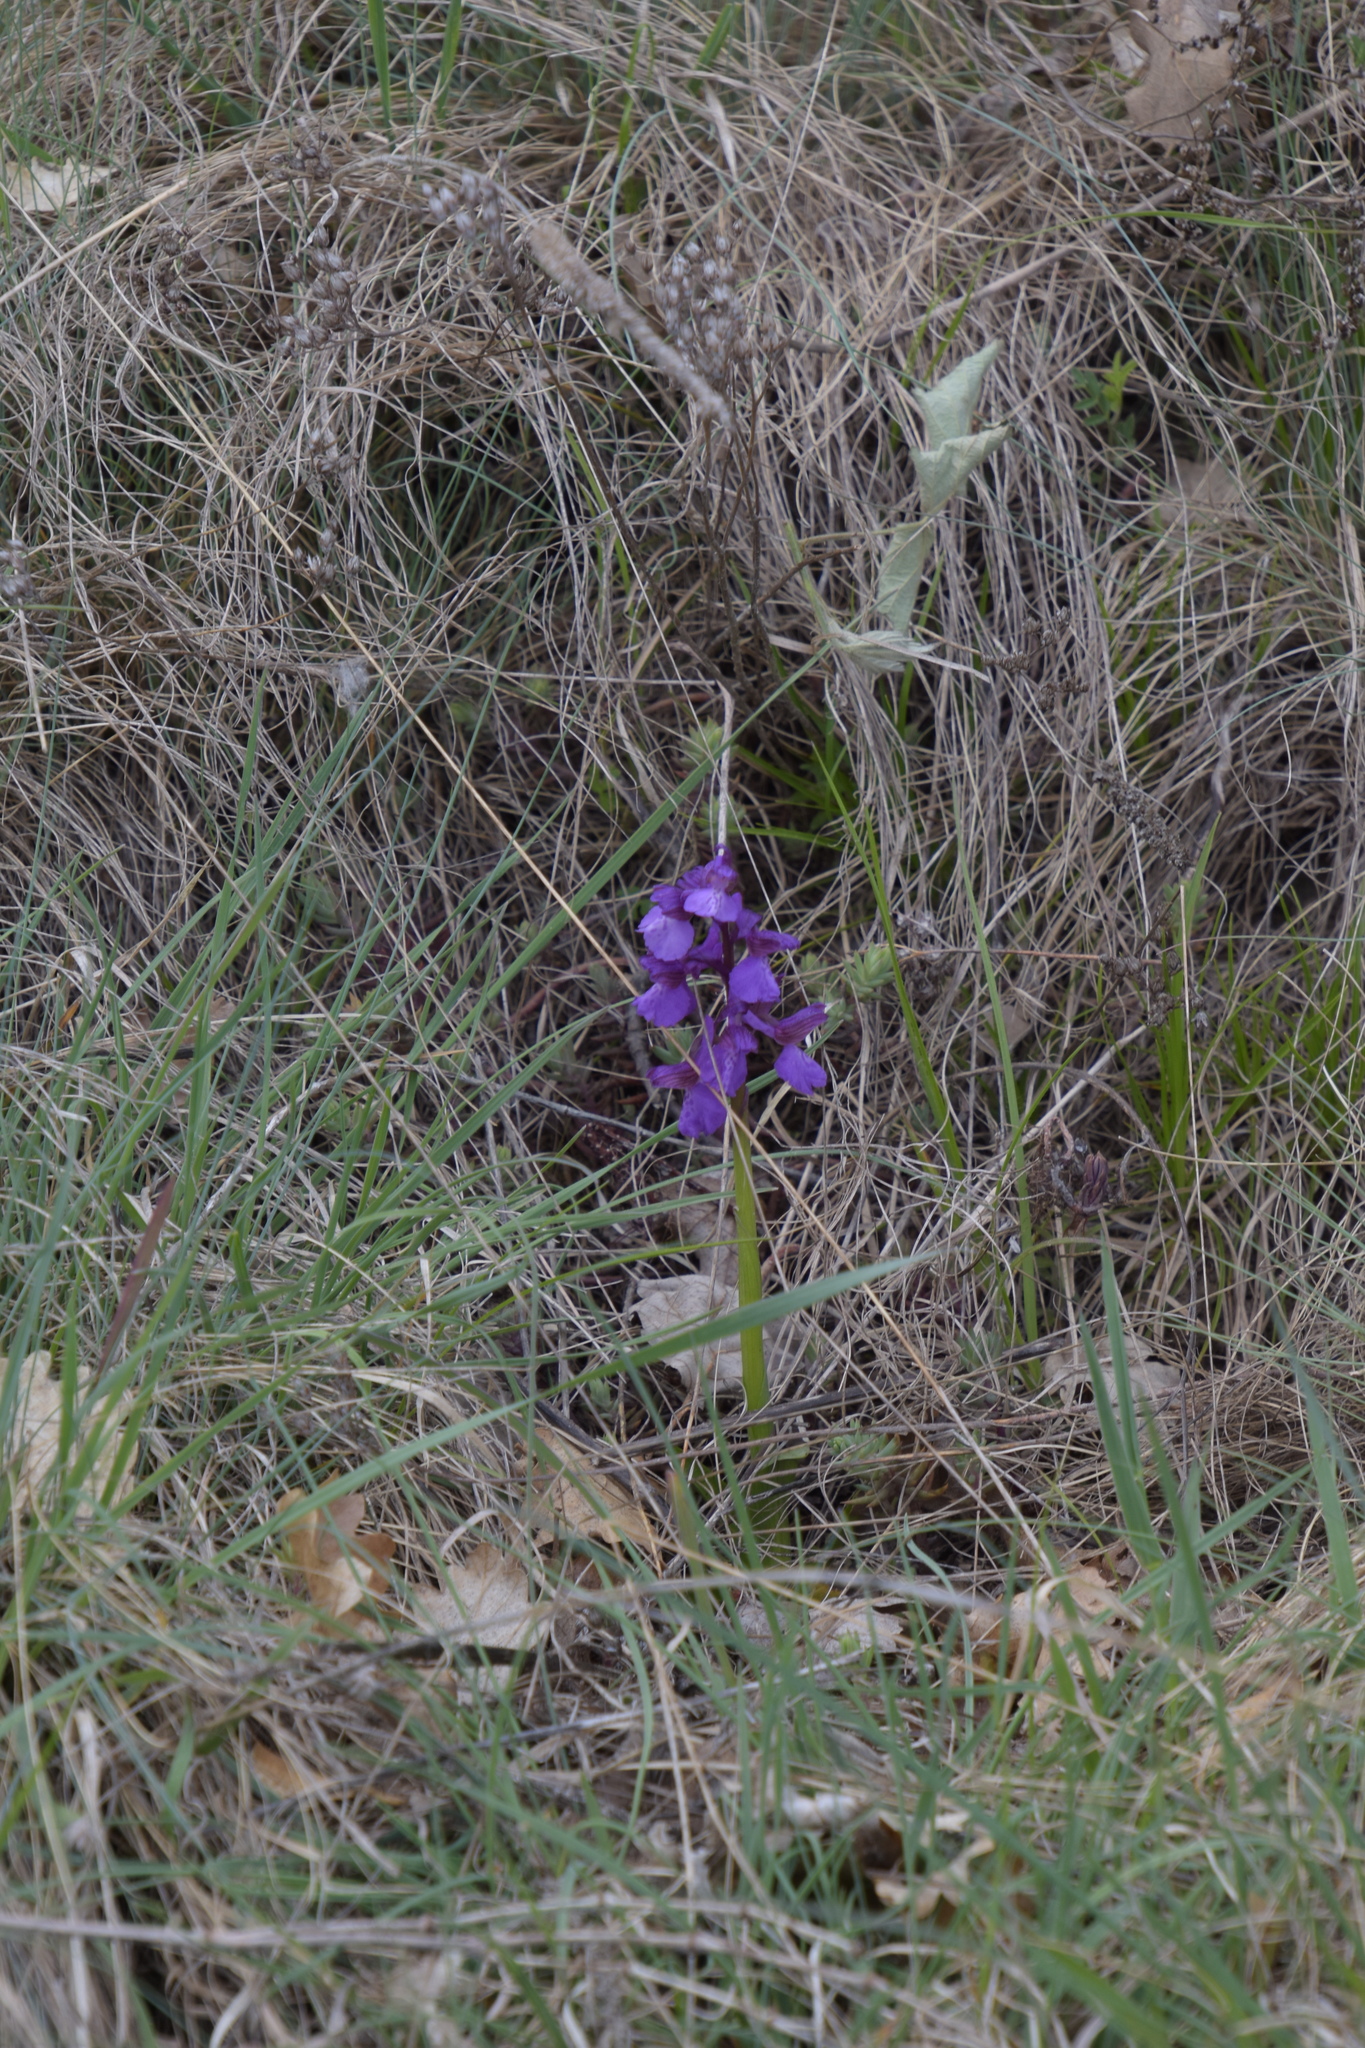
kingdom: Plantae
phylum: Tracheophyta
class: Liliopsida
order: Asparagales
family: Orchidaceae
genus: Anacamptis
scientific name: Anacamptis morio
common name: Green-winged orchid
